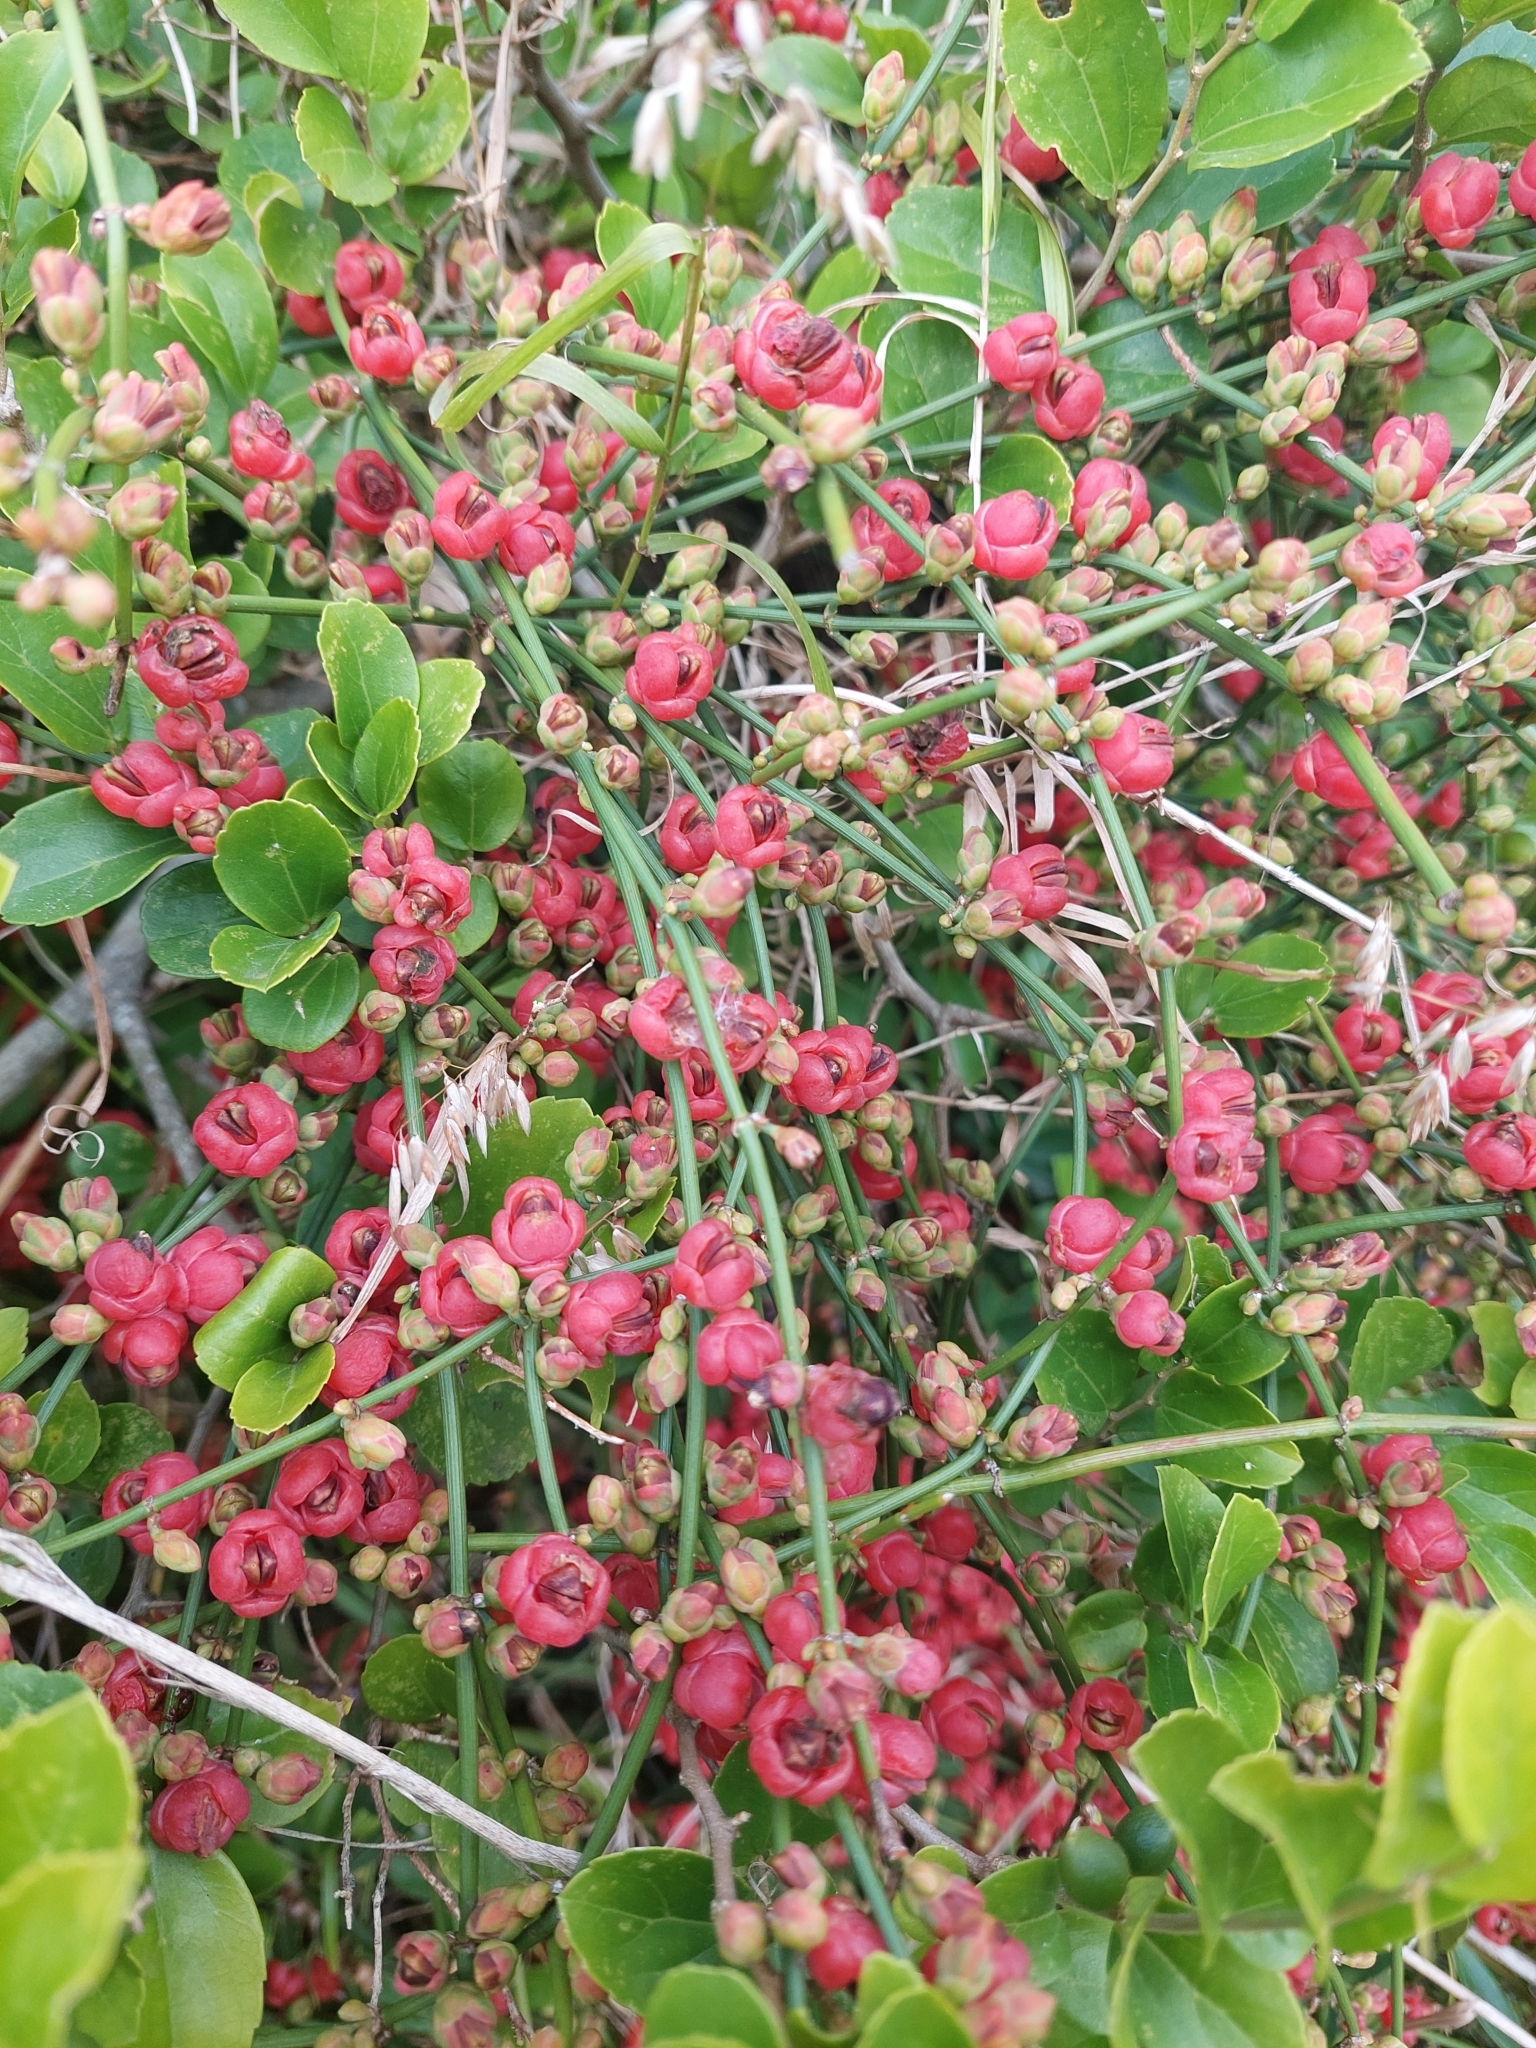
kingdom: Plantae
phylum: Tracheophyta
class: Gnetopsida
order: Ephedrales
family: Ephedraceae
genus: Ephedra
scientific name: Ephedra tweedieana
